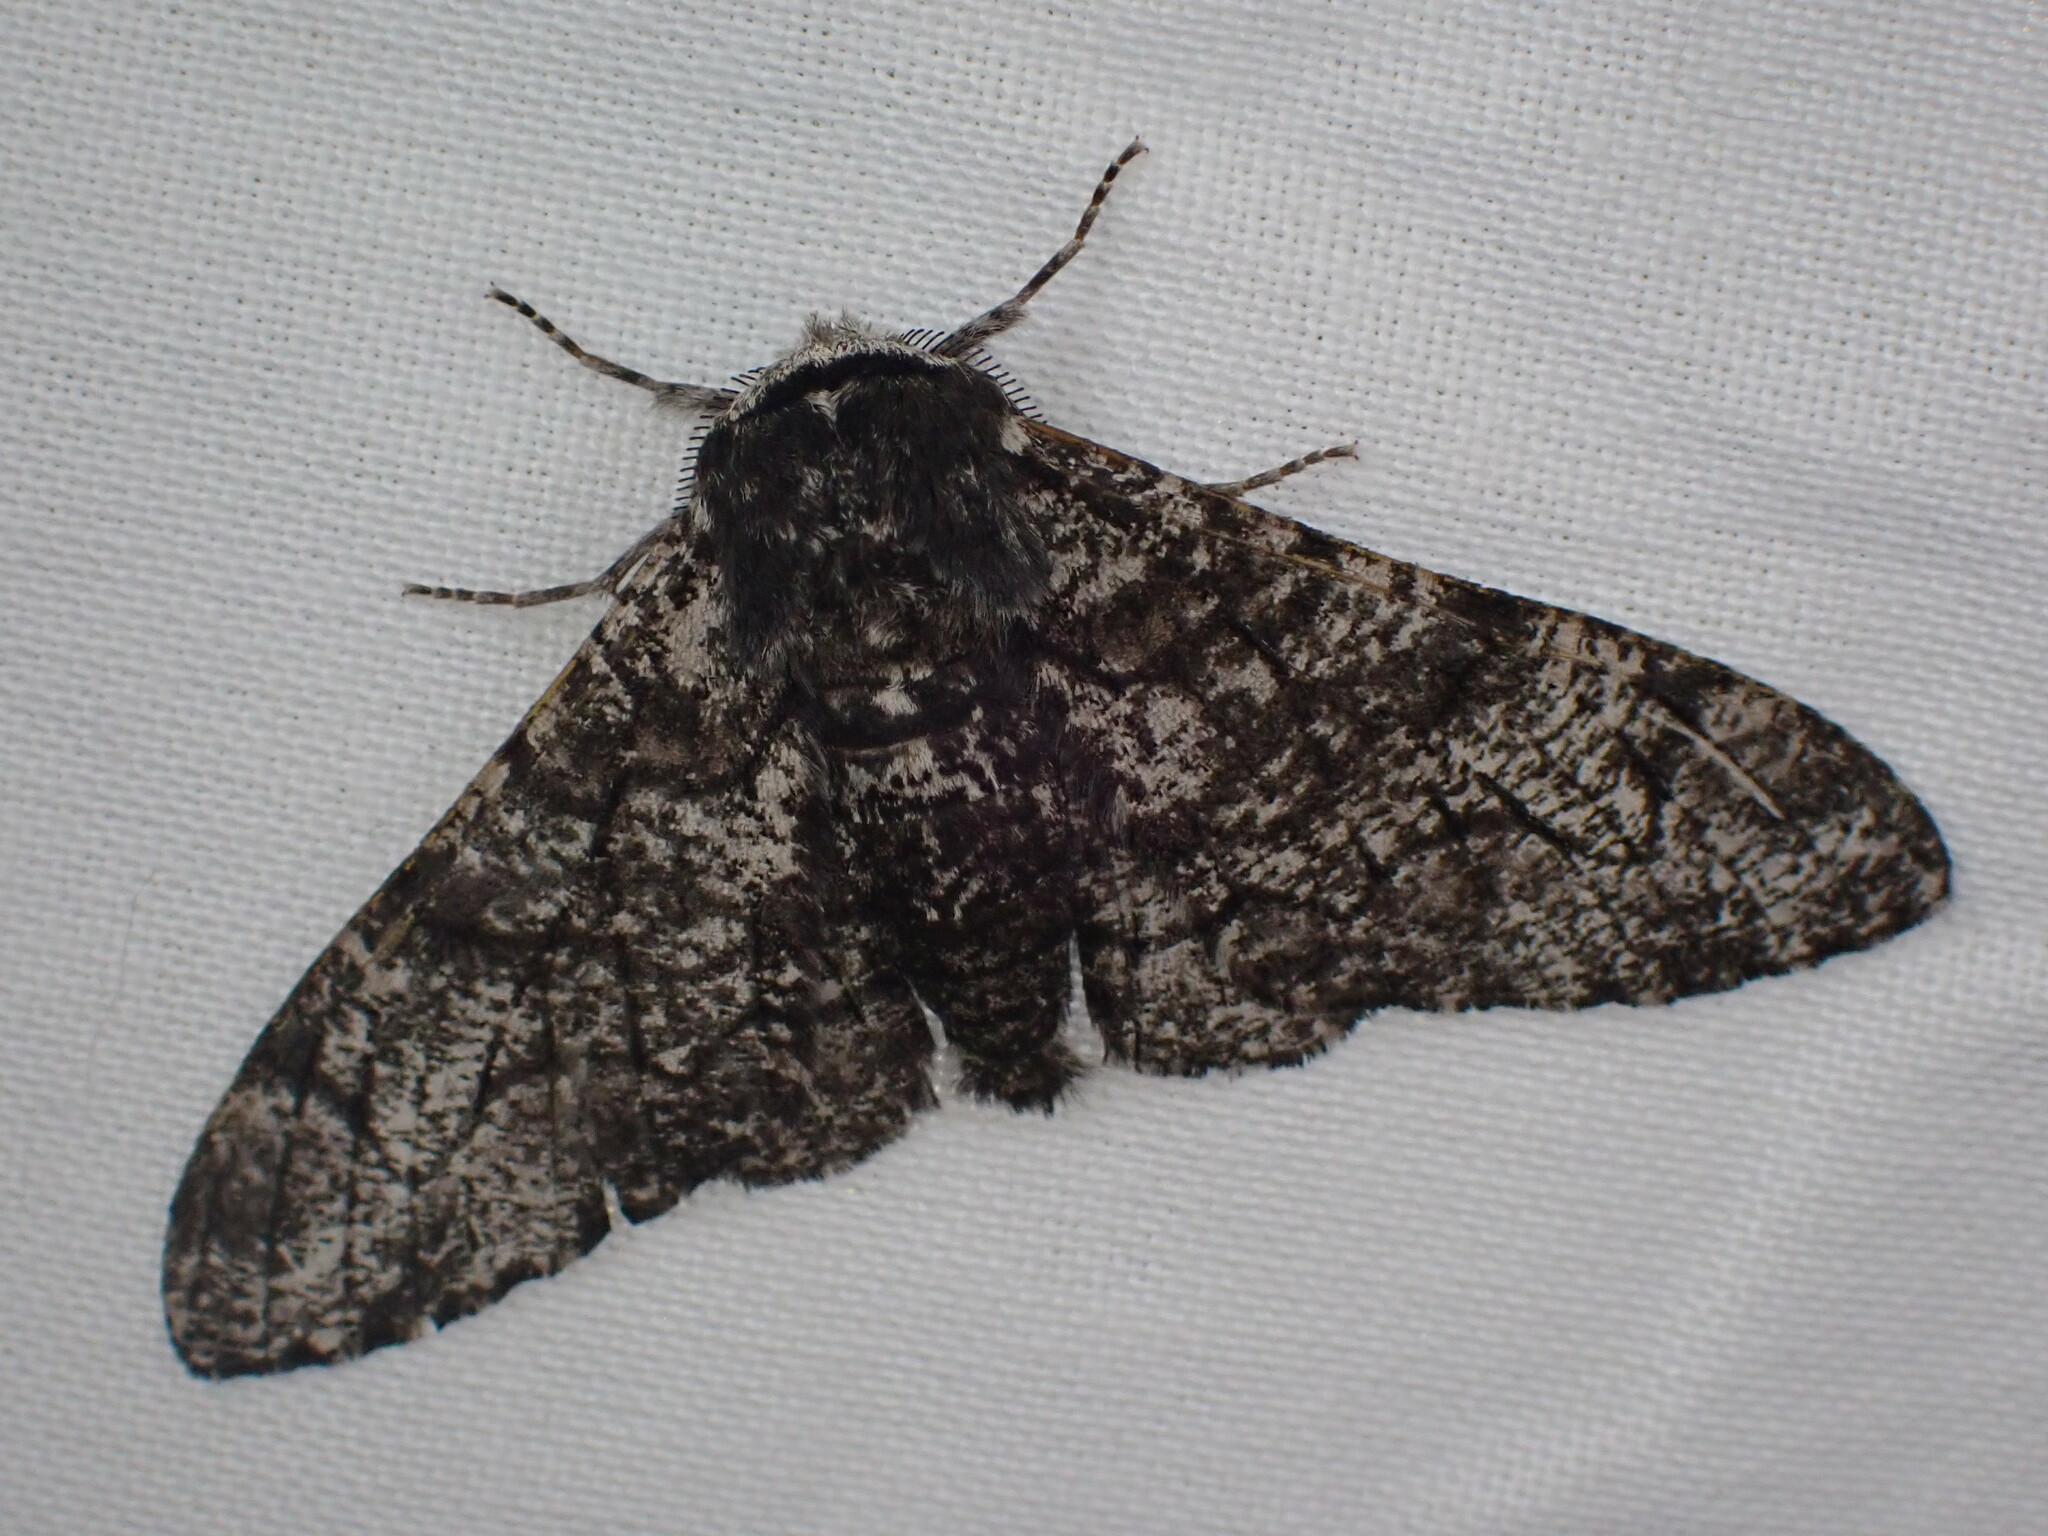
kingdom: Animalia
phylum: Arthropoda
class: Insecta
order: Lepidoptera
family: Geometridae
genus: Biston
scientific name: Biston betularia
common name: Peppered moth
